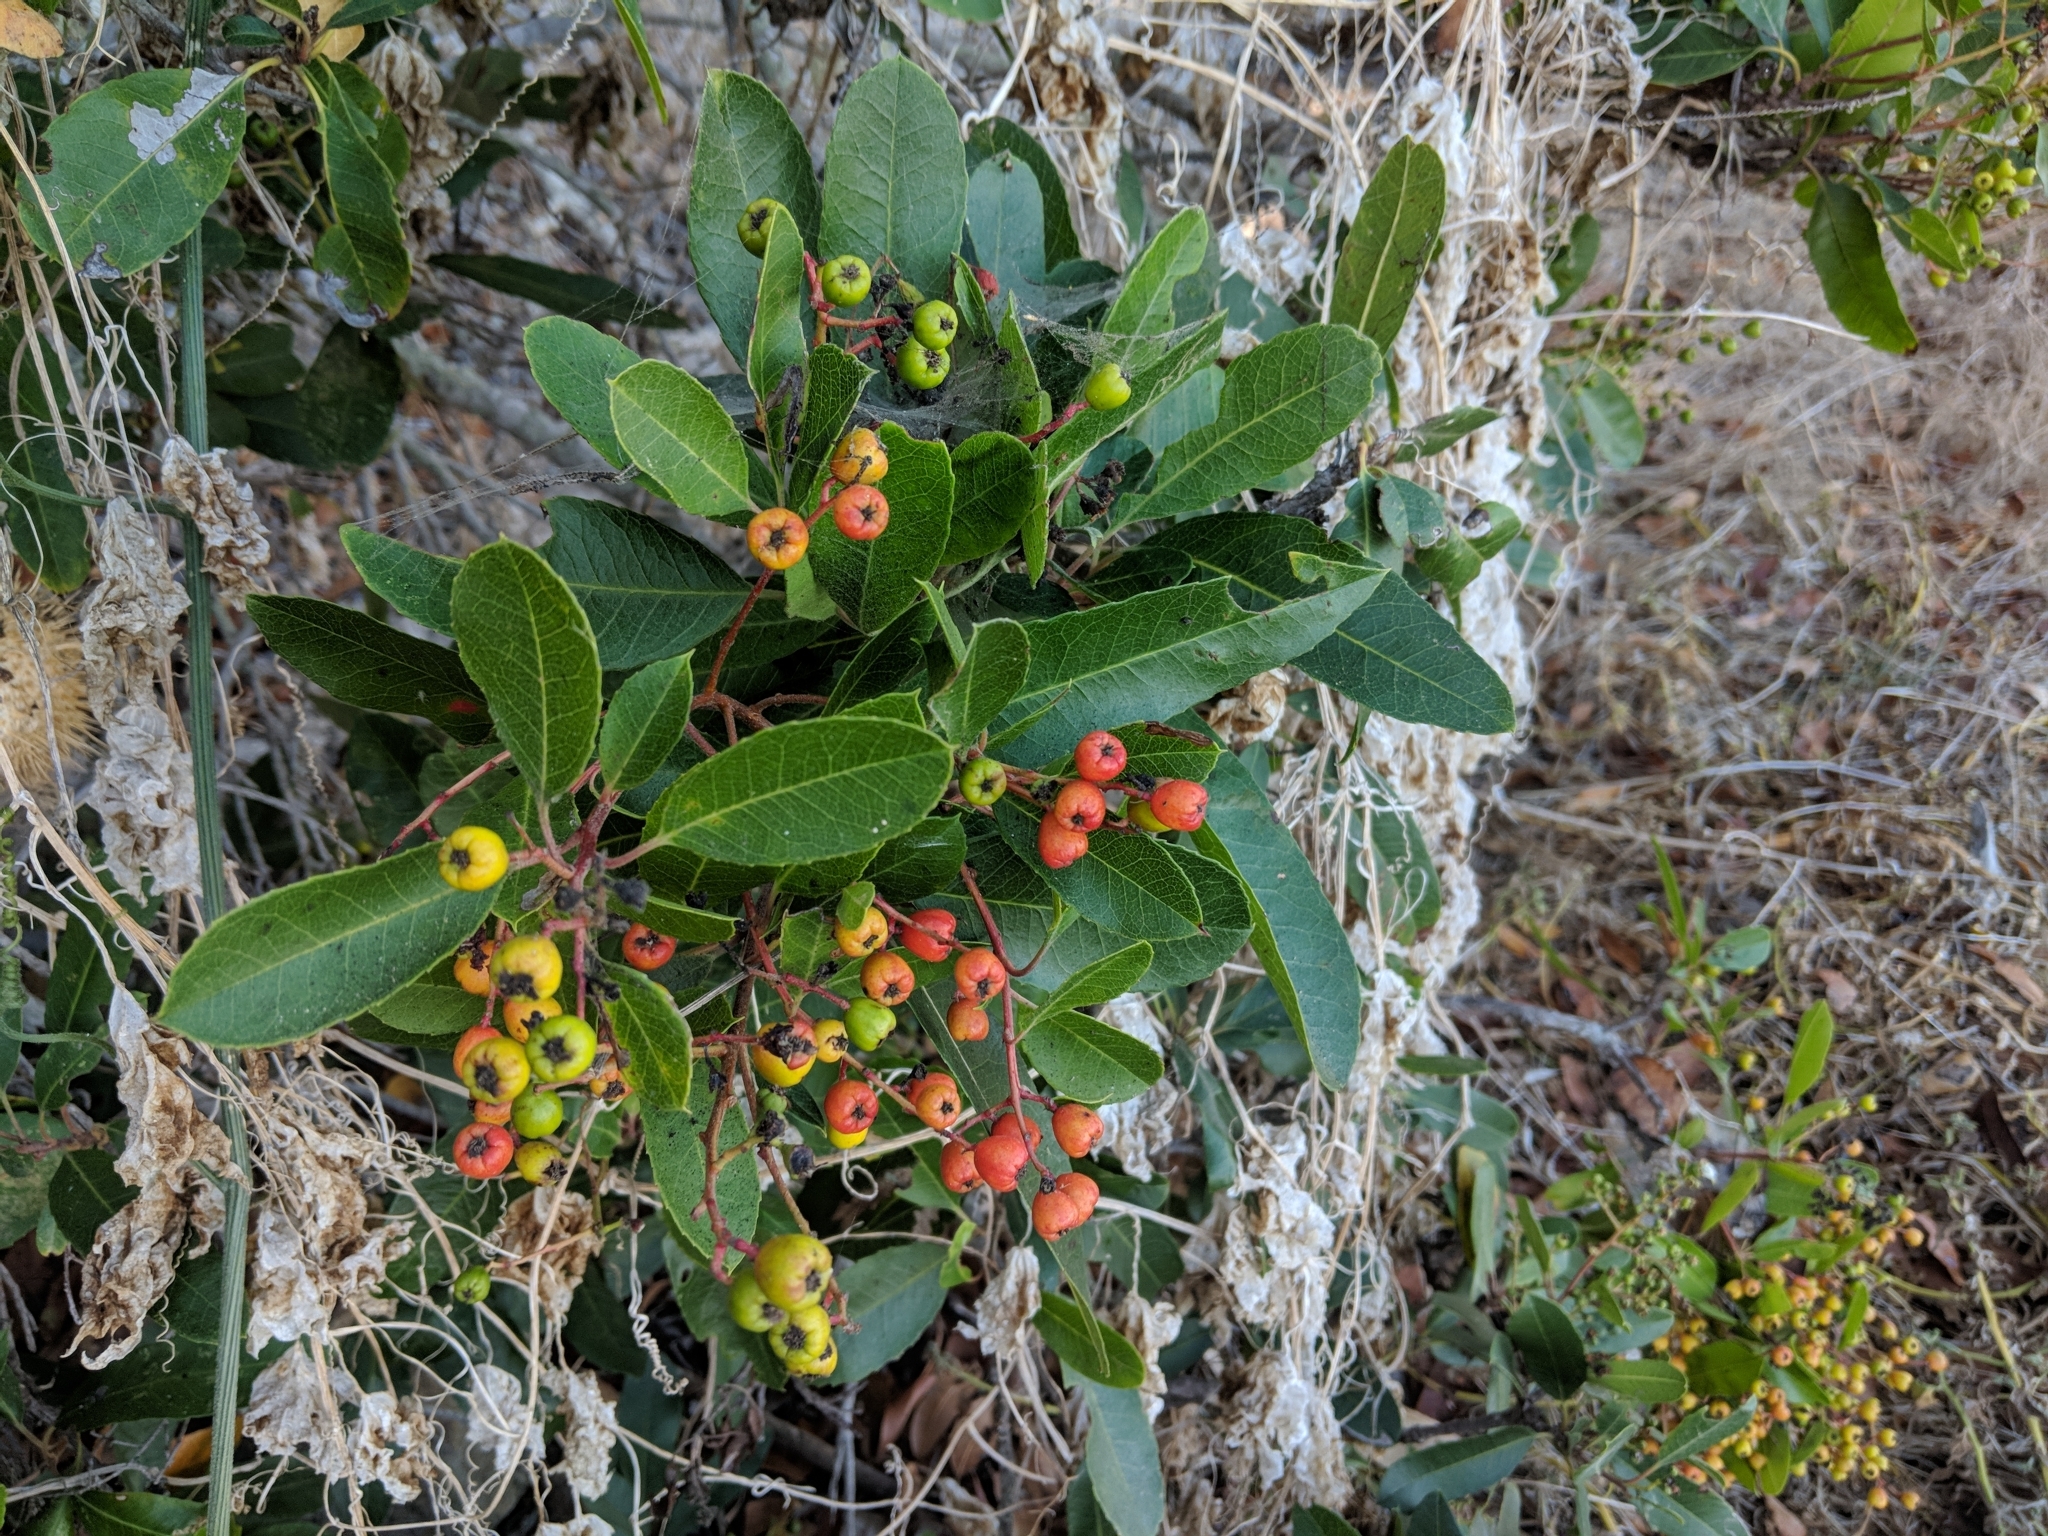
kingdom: Plantae
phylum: Tracheophyta
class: Magnoliopsida
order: Rosales
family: Rosaceae
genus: Heteromeles
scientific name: Heteromeles arbutifolia
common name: California-holly
